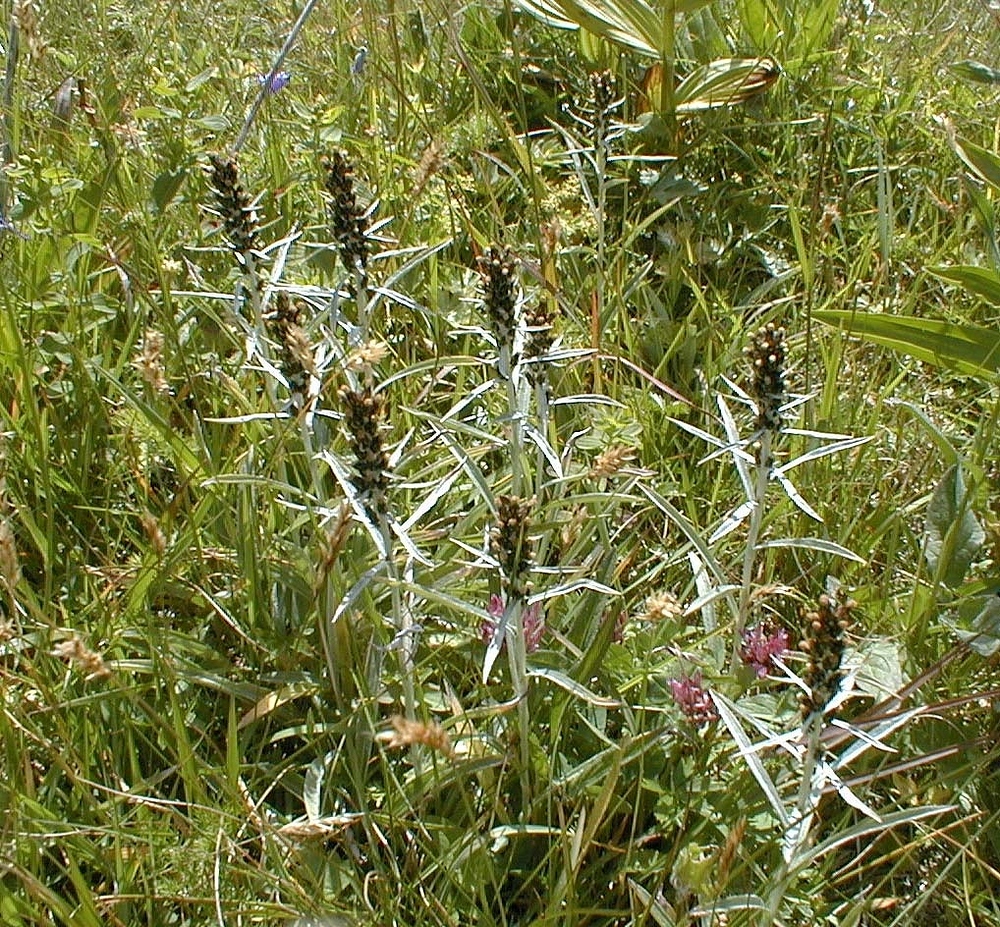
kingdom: Plantae
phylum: Tracheophyta
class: Magnoliopsida
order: Asterales
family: Asteraceae
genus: Omalotheca
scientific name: Omalotheca norvegica
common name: Norwegian arctic-cudweed
